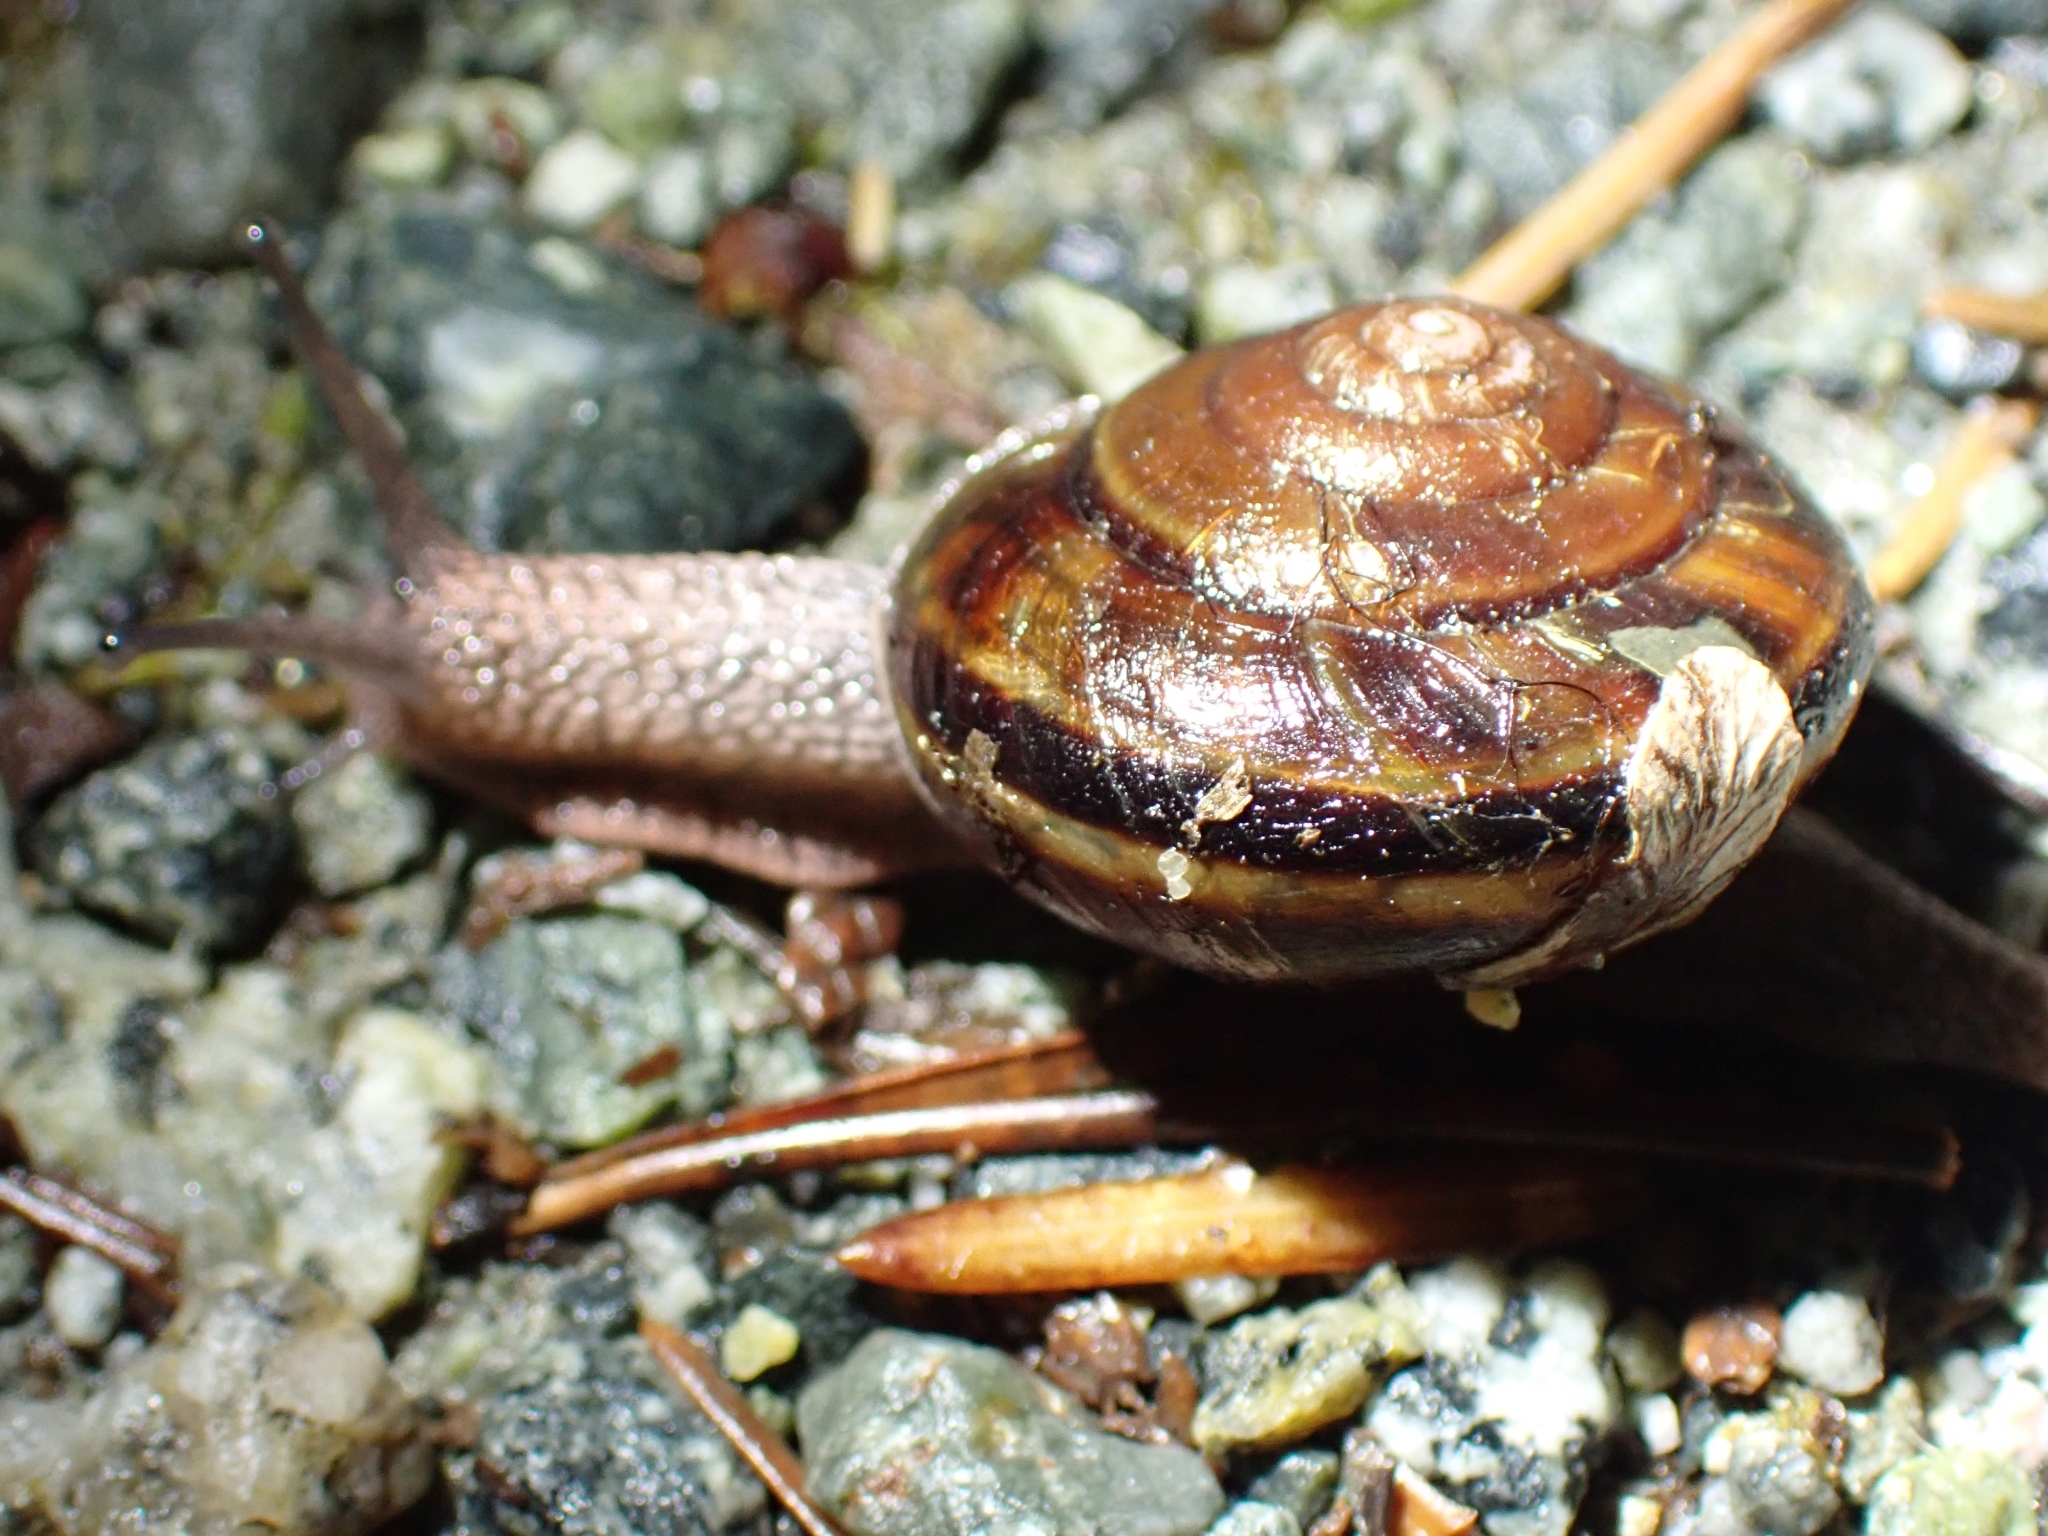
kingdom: Animalia
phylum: Mollusca
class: Gastropoda
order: Stylommatophora
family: Xanthonychidae
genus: Monadenia
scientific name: Monadenia fidelis
